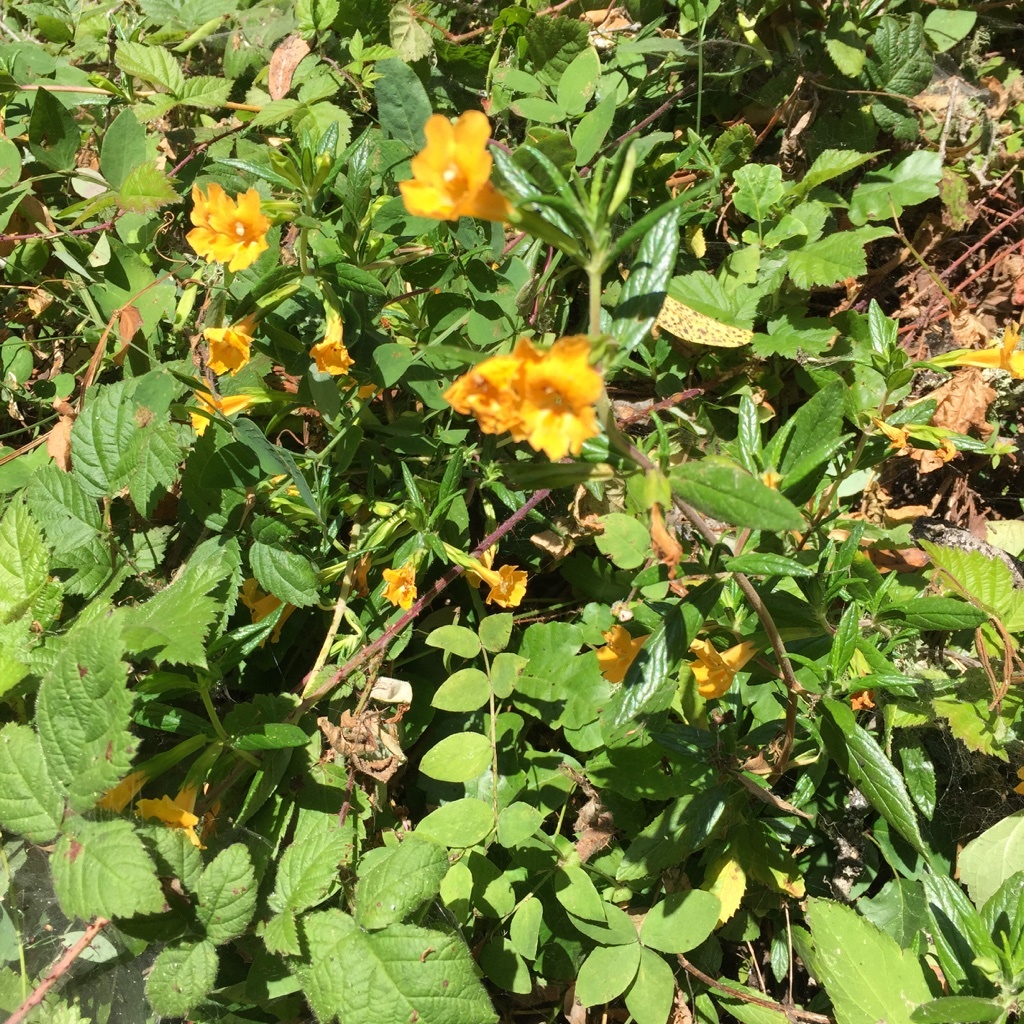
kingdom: Plantae
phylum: Tracheophyta
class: Magnoliopsida
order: Lamiales
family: Phrymaceae
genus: Diplacus
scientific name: Diplacus aurantiacus
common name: Bush monkey-flower
